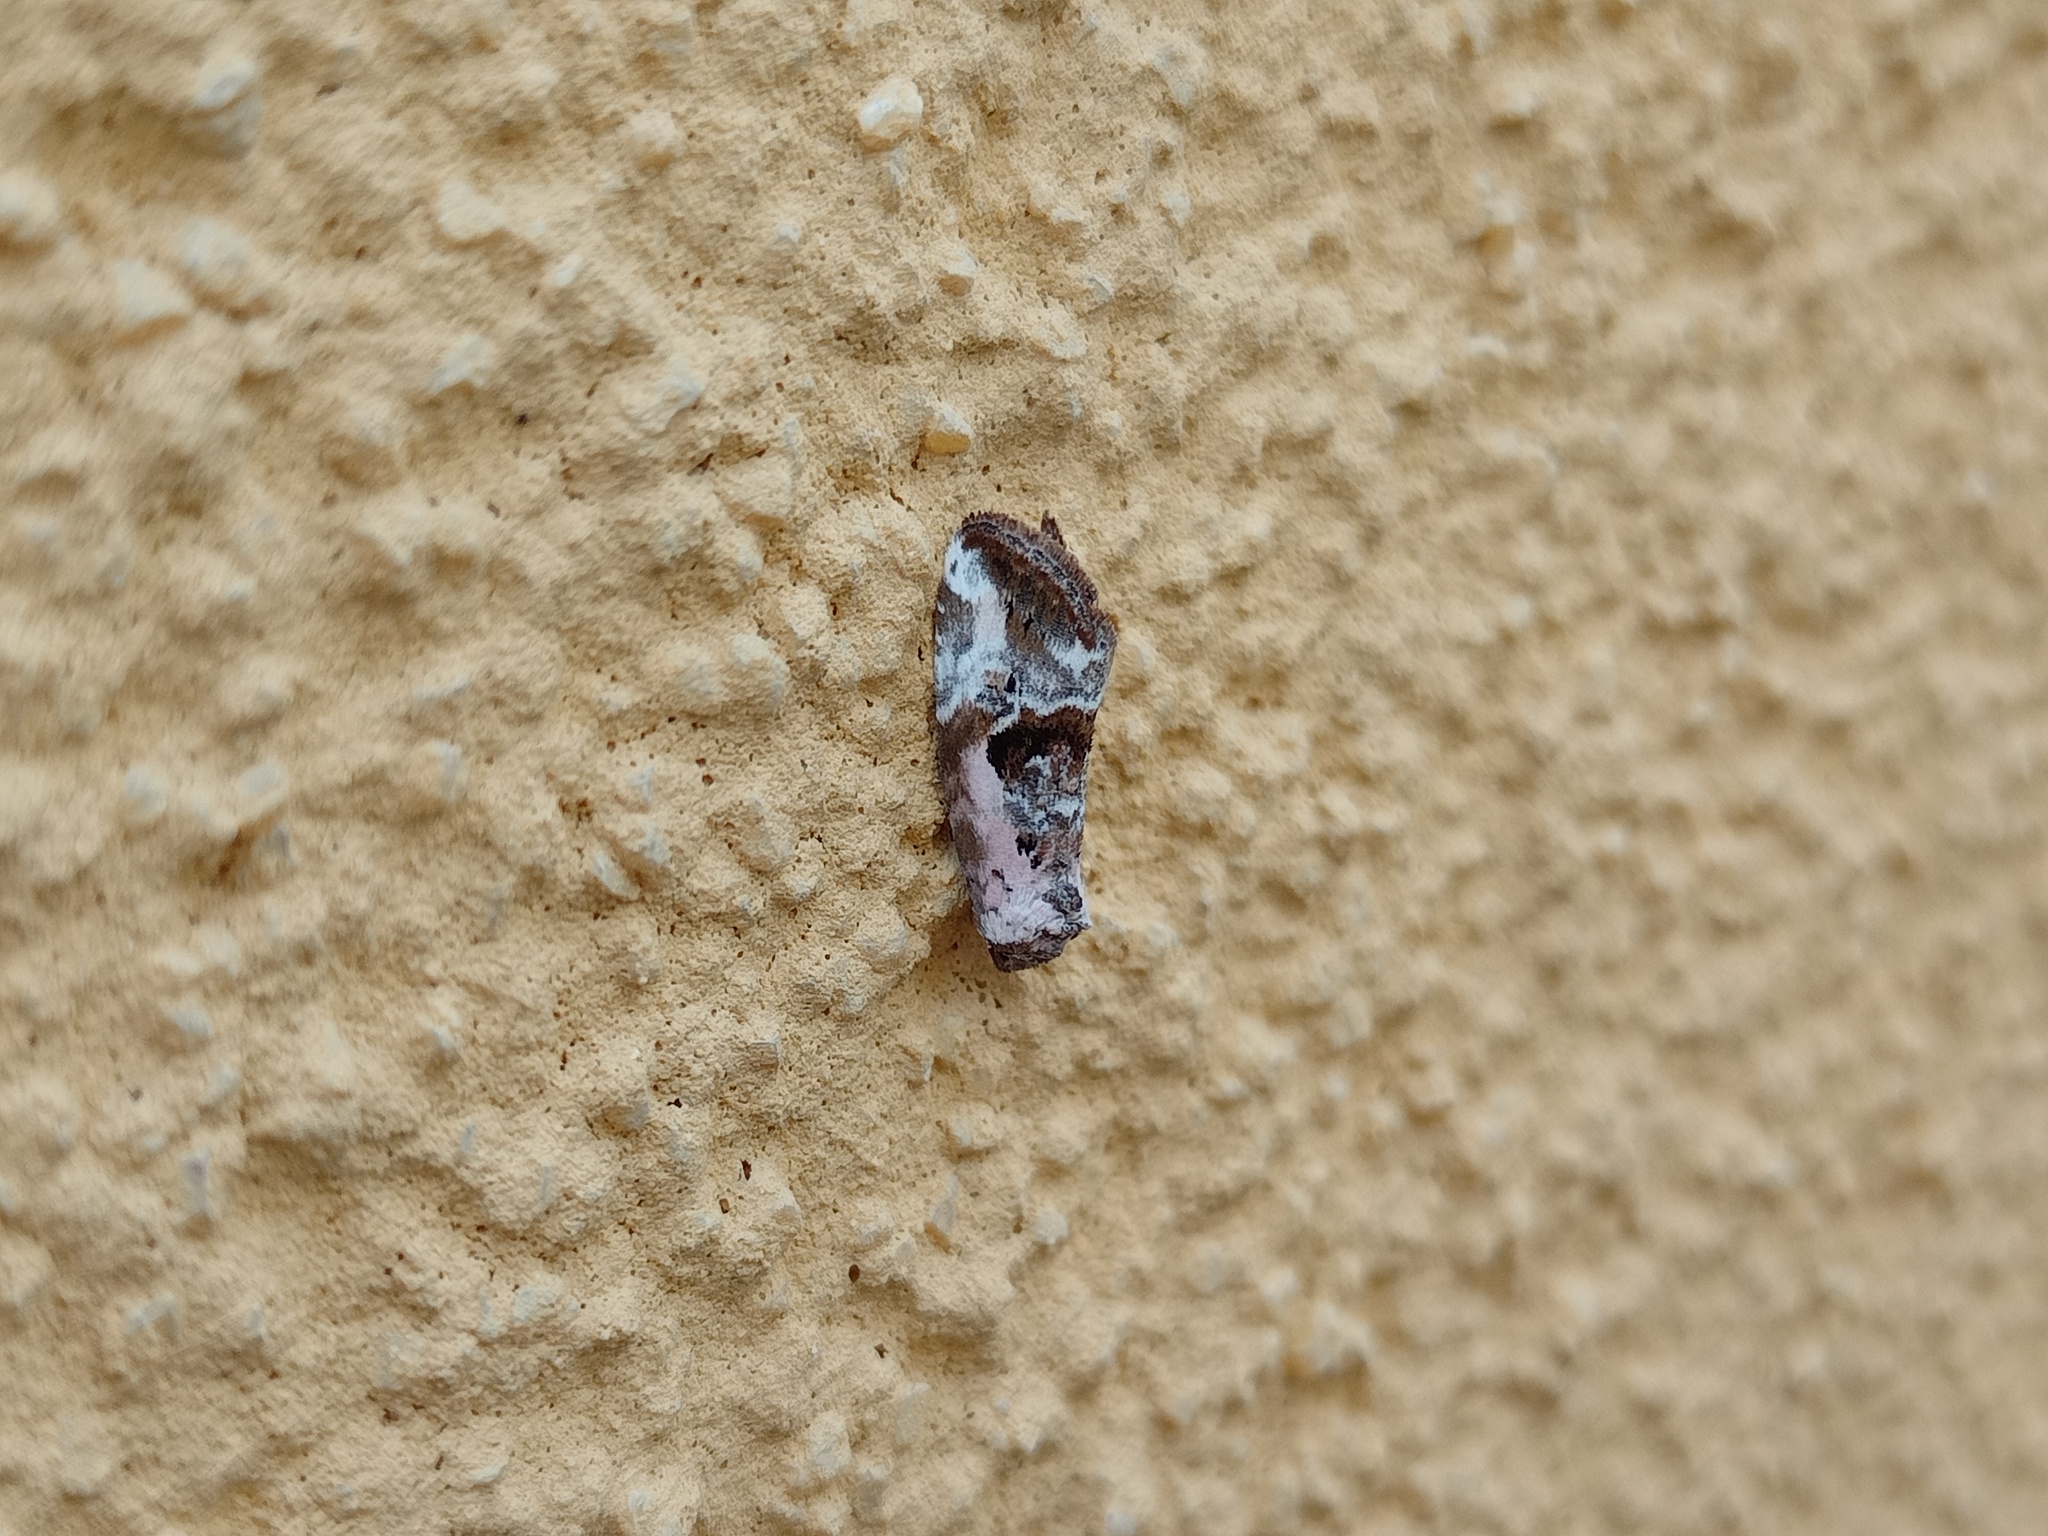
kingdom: Animalia
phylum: Arthropoda
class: Insecta
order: Lepidoptera
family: Noctuidae
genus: Elaphria
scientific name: Elaphria venustula
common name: Rosy marbled
